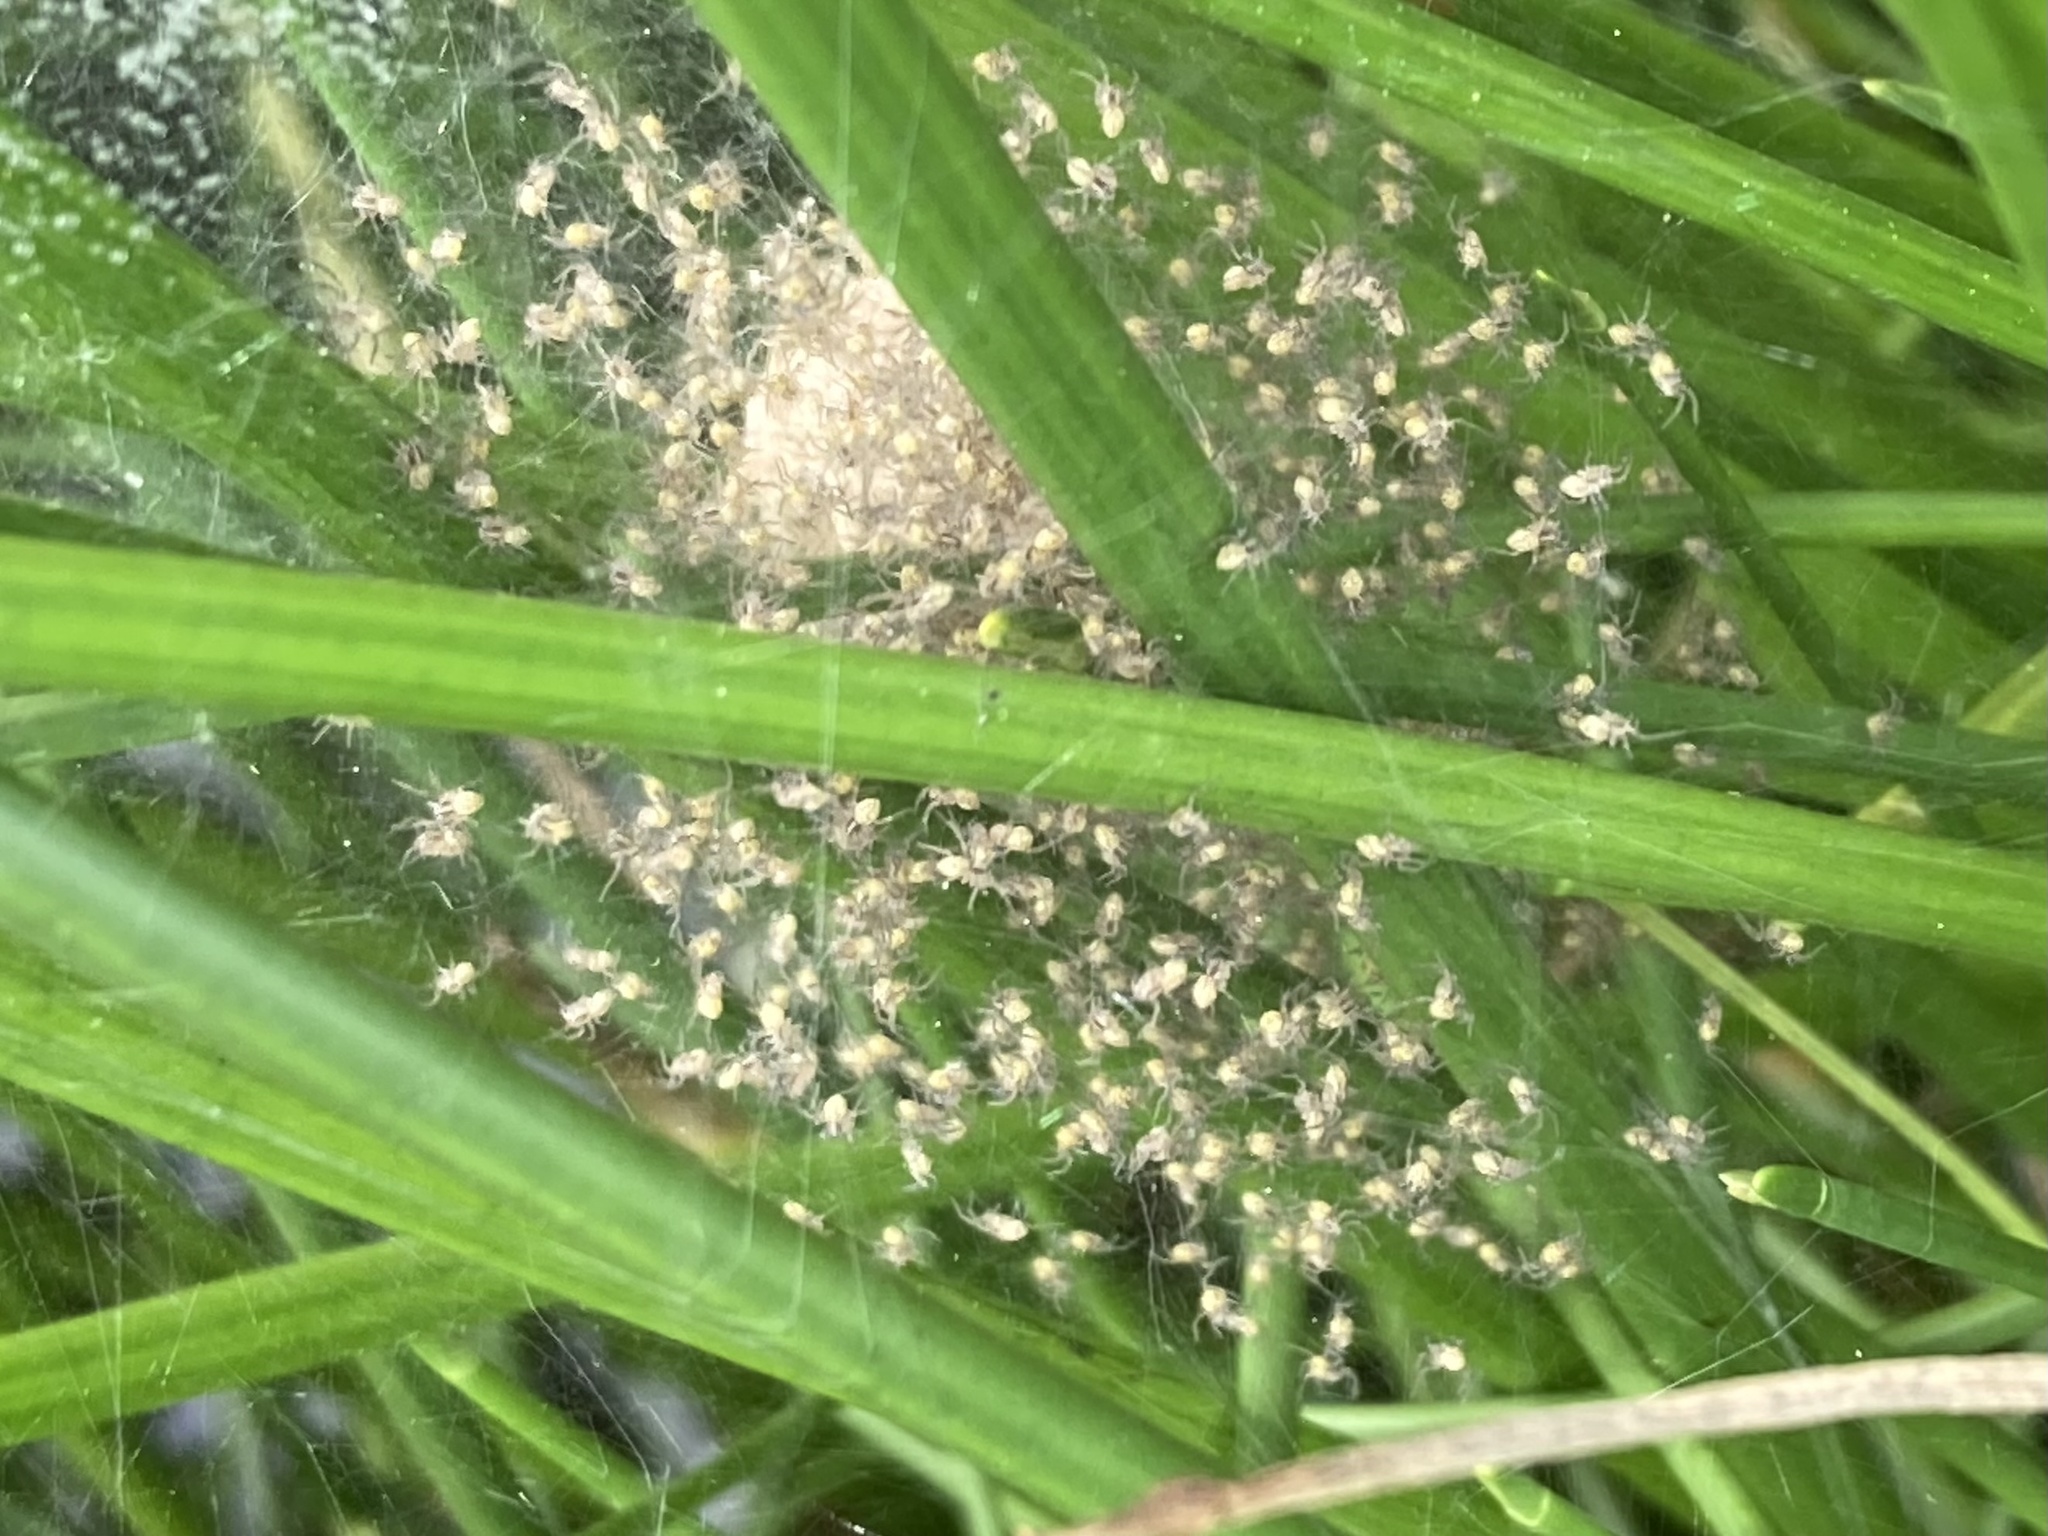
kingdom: Animalia
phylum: Arthropoda
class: Arachnida
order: Araneae
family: Pisauridae
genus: Dolomedes
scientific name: Dolomedes minor
